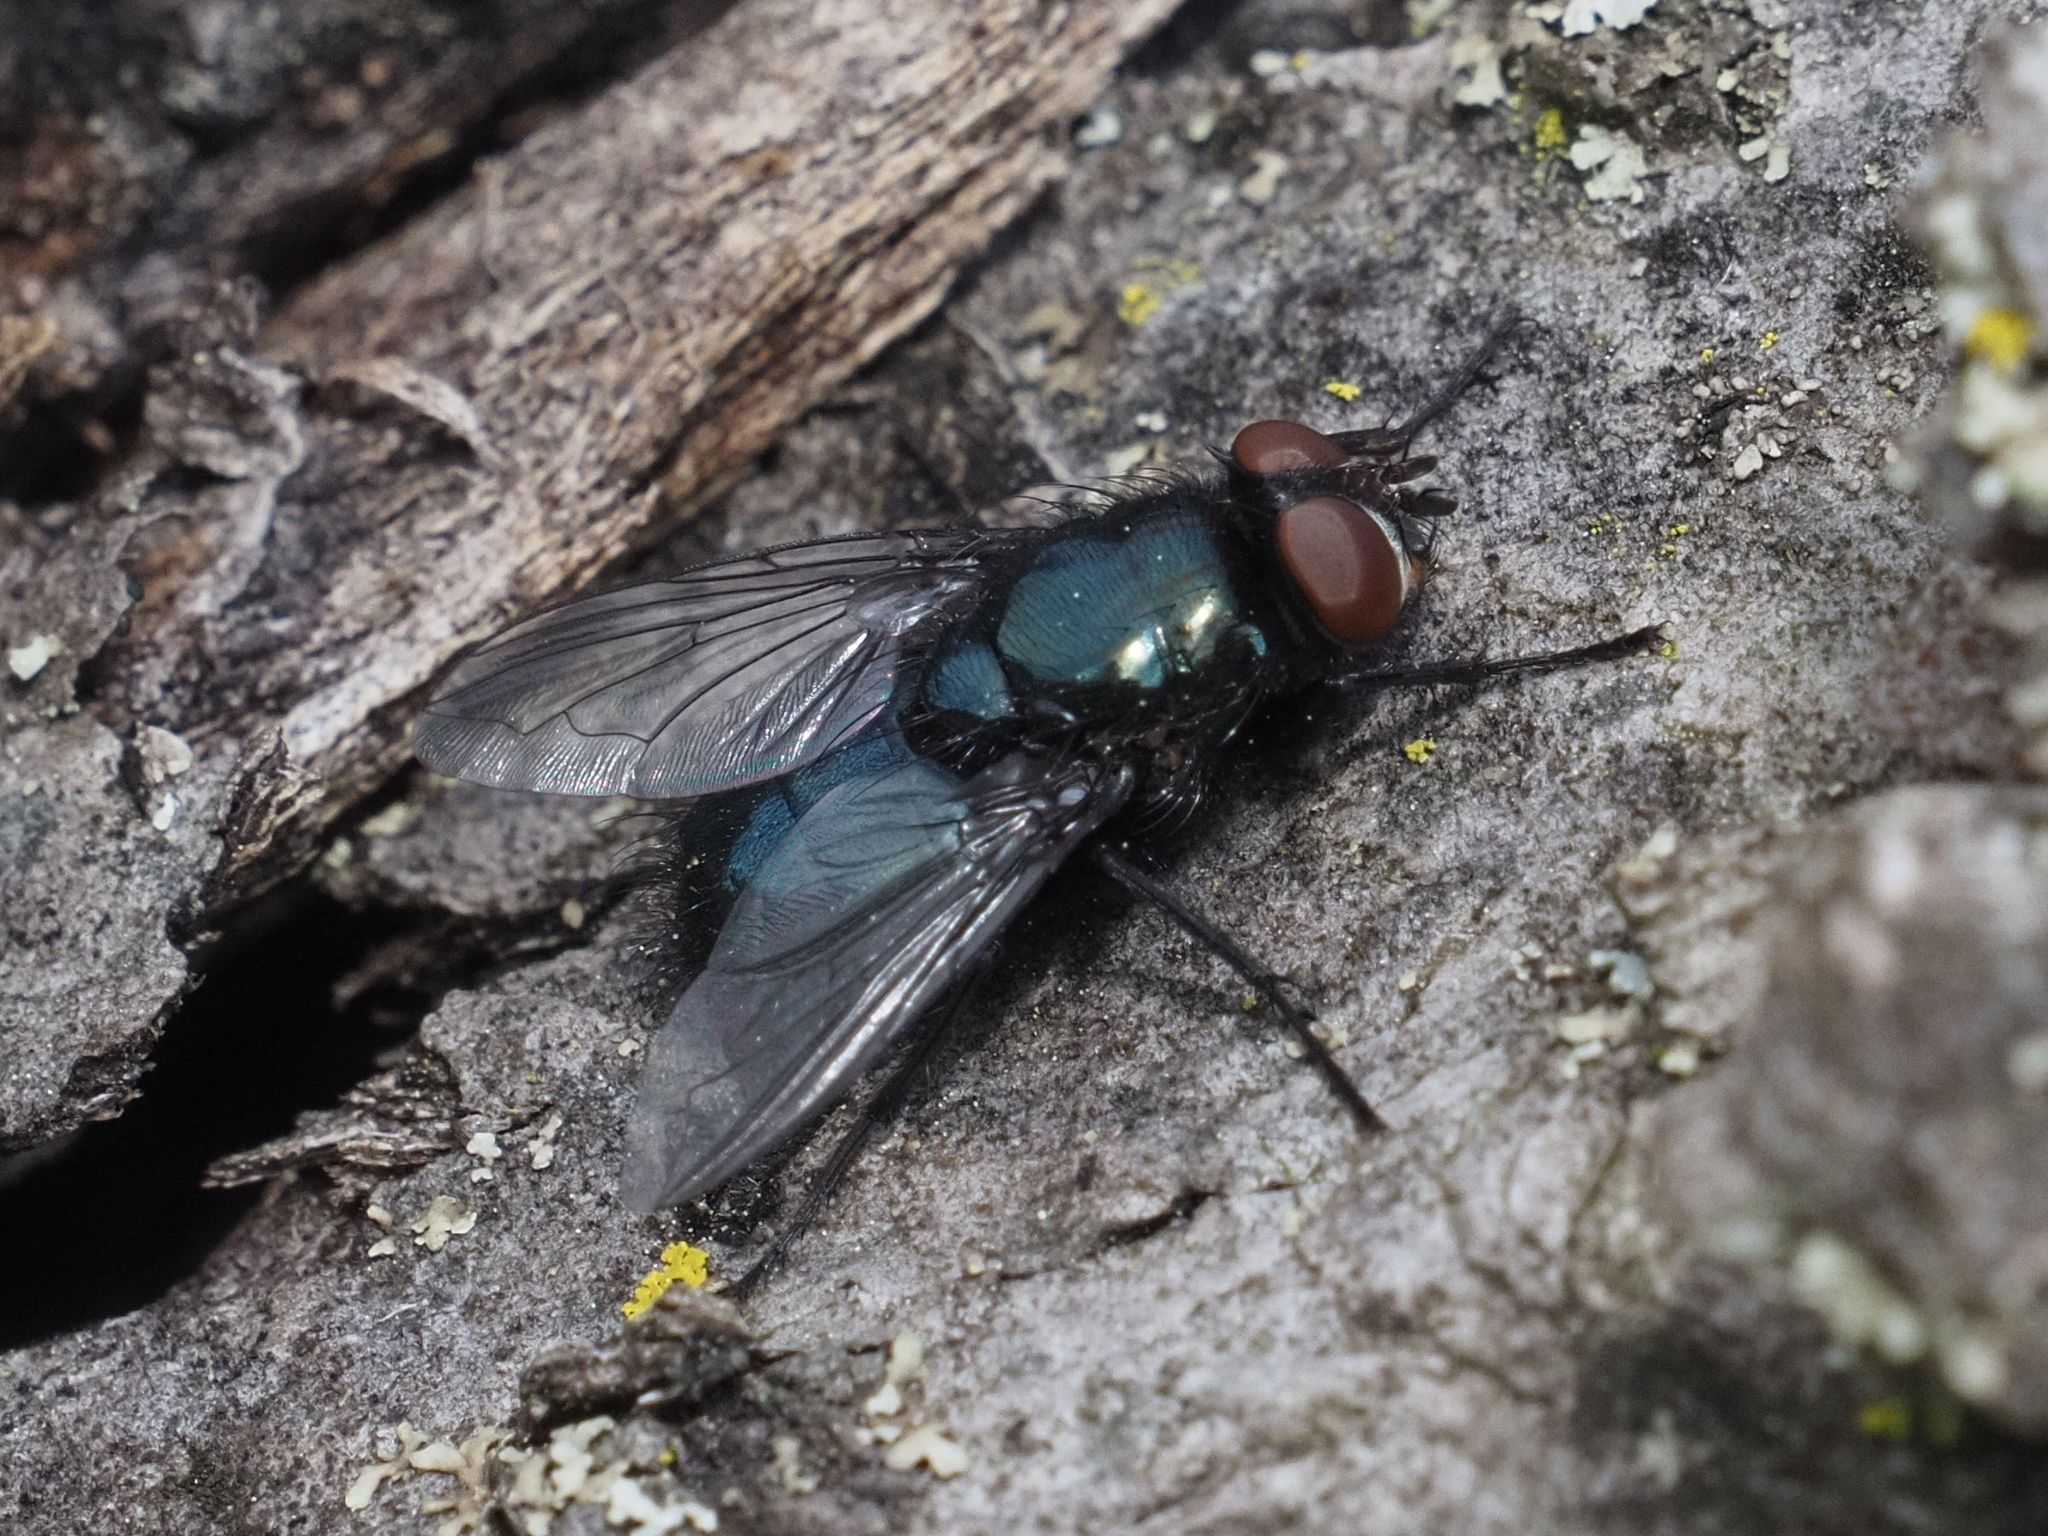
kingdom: Animalia
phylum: Arthropoda
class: Insecta
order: Diptera
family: Calliphoridae
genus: Protophormia
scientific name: Protophormia terraenovae
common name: Blackbottle
